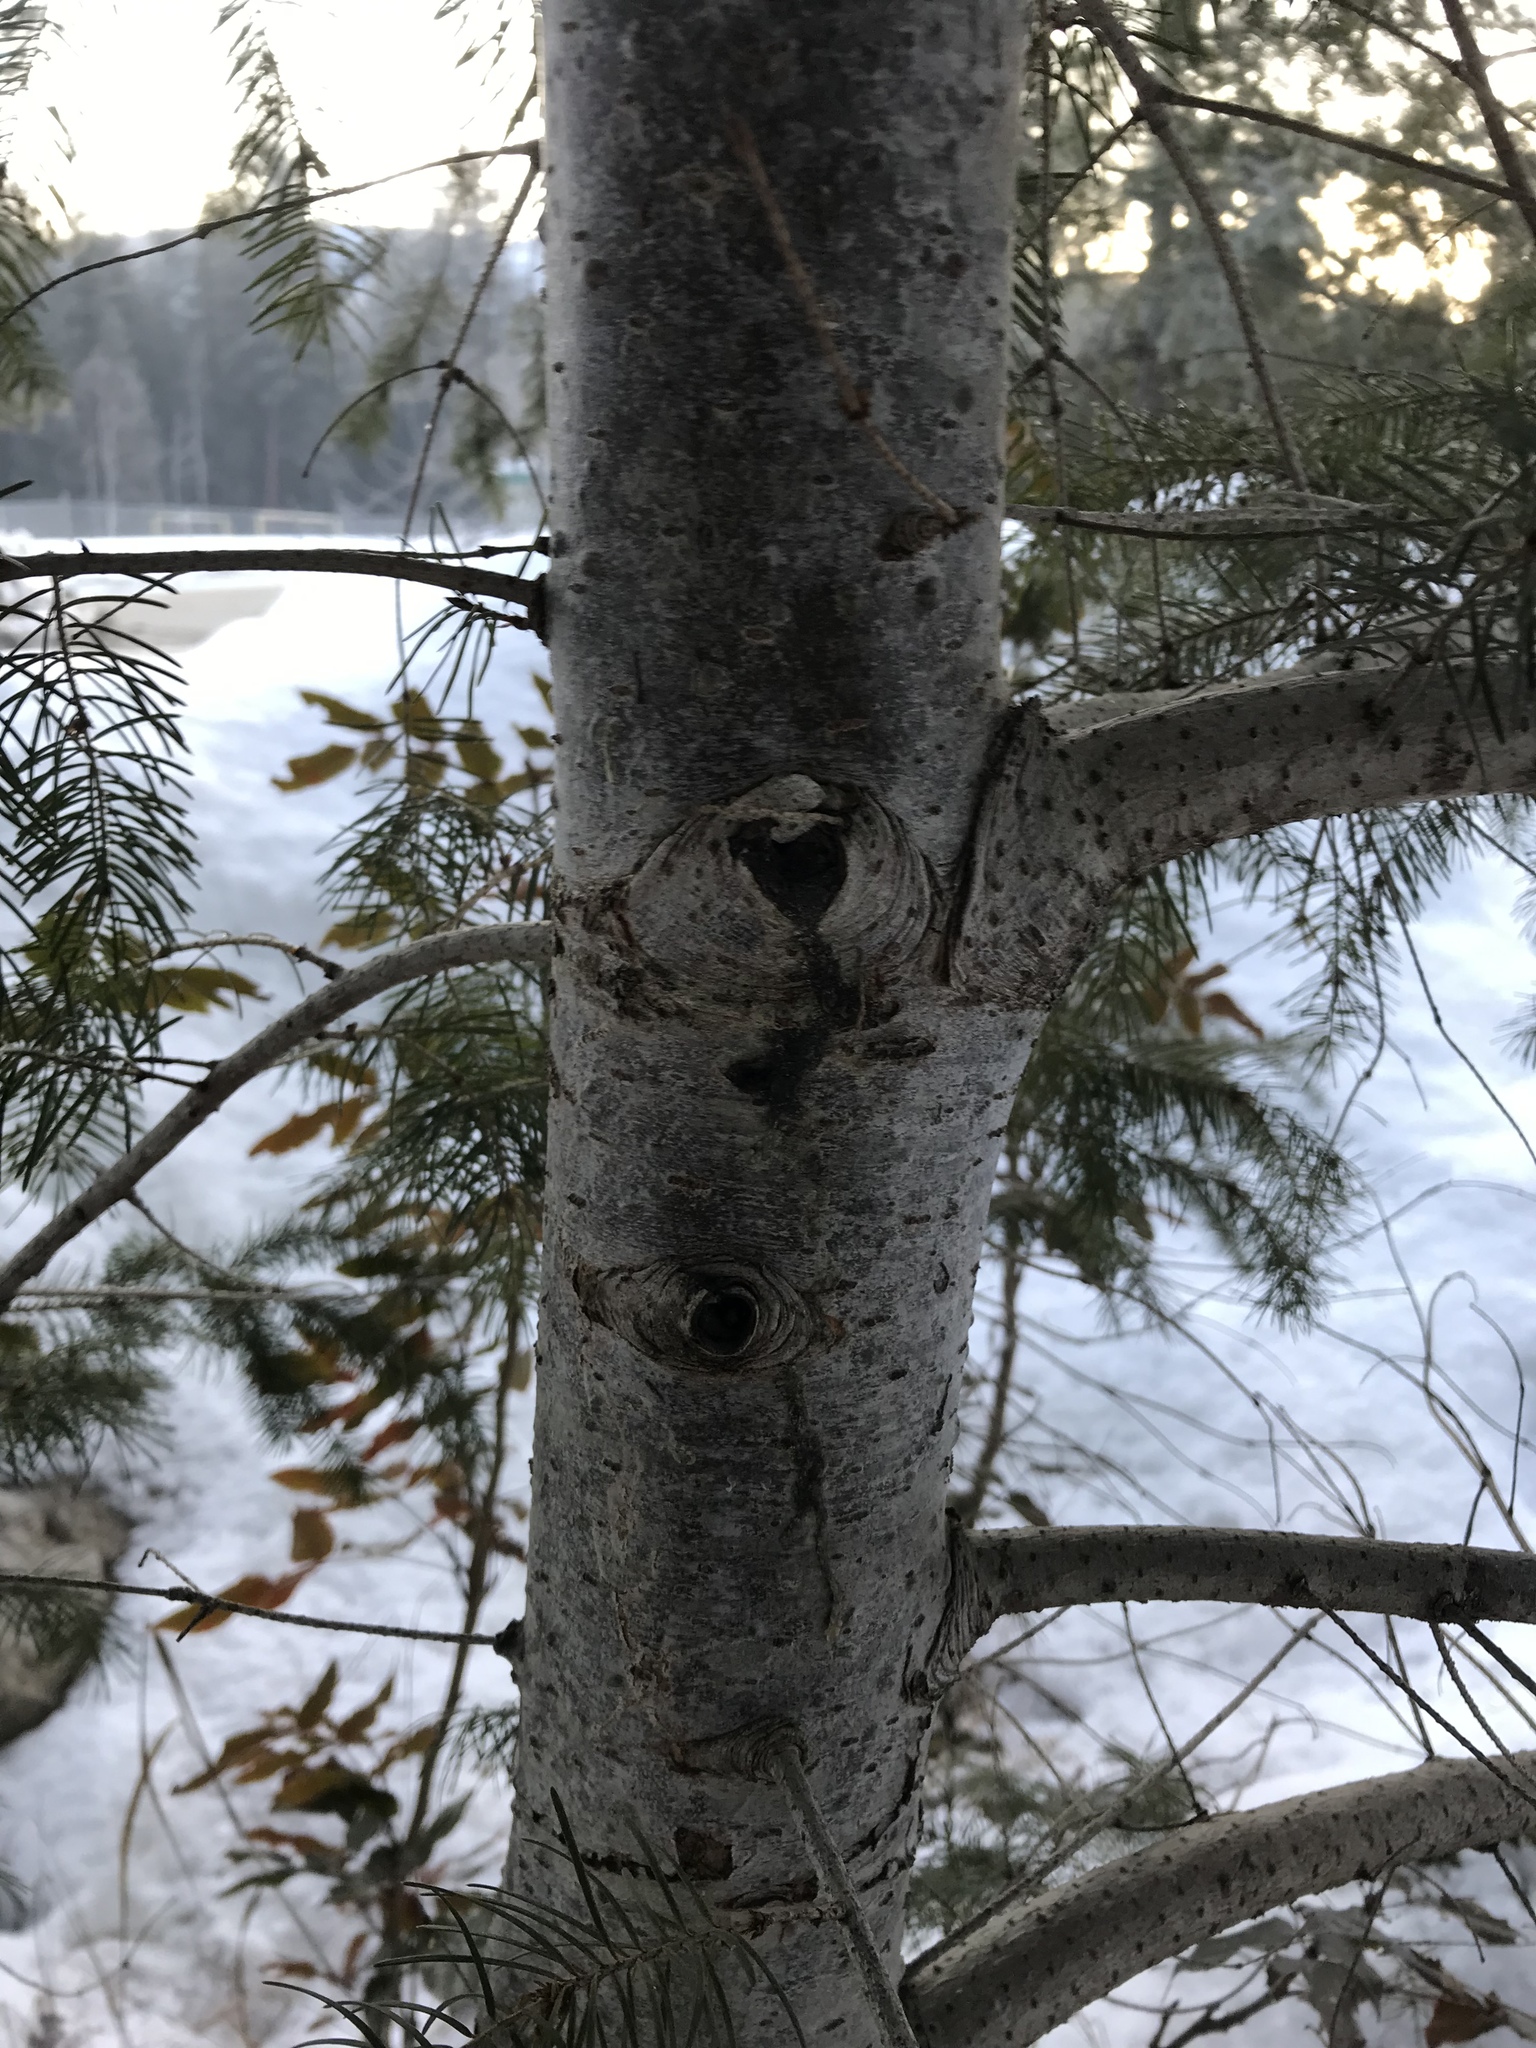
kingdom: Plantae
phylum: Tracheophyta
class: Pinopsida
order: Pinales
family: Pinaceae
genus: Pseudotsuga
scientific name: Pseudotsuga menziesii
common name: Douglas fir
